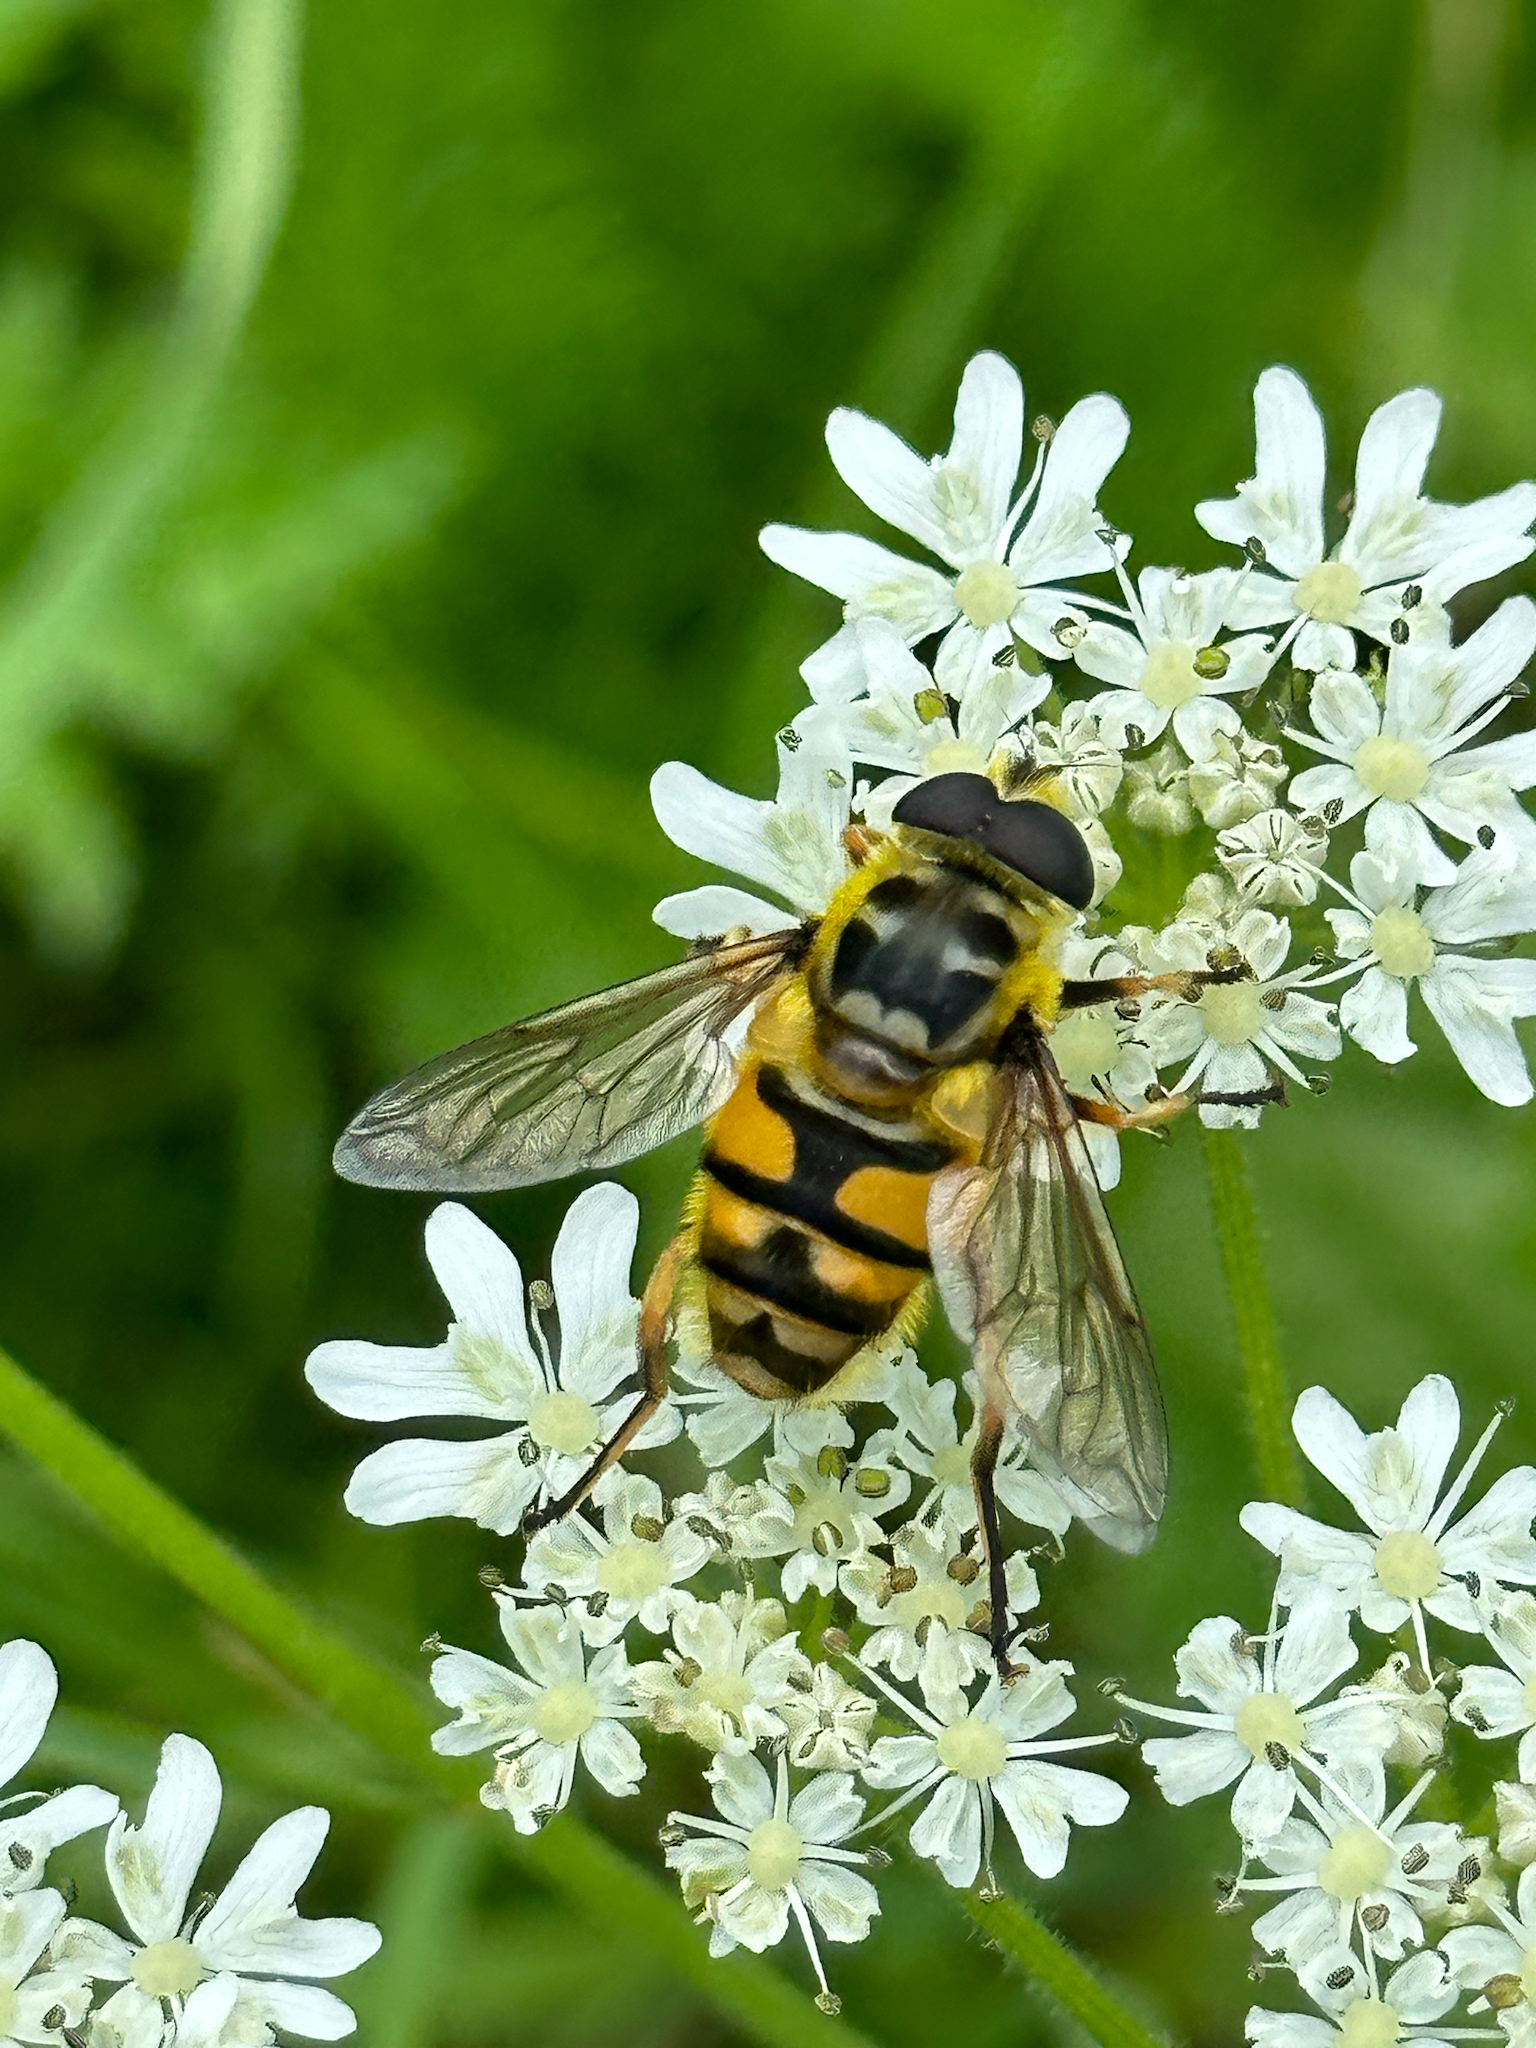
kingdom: Animalia
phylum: Arthropoda
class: Insecta
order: Diptera
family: Syrphidae
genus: Myathropa
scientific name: Myathropa florea
